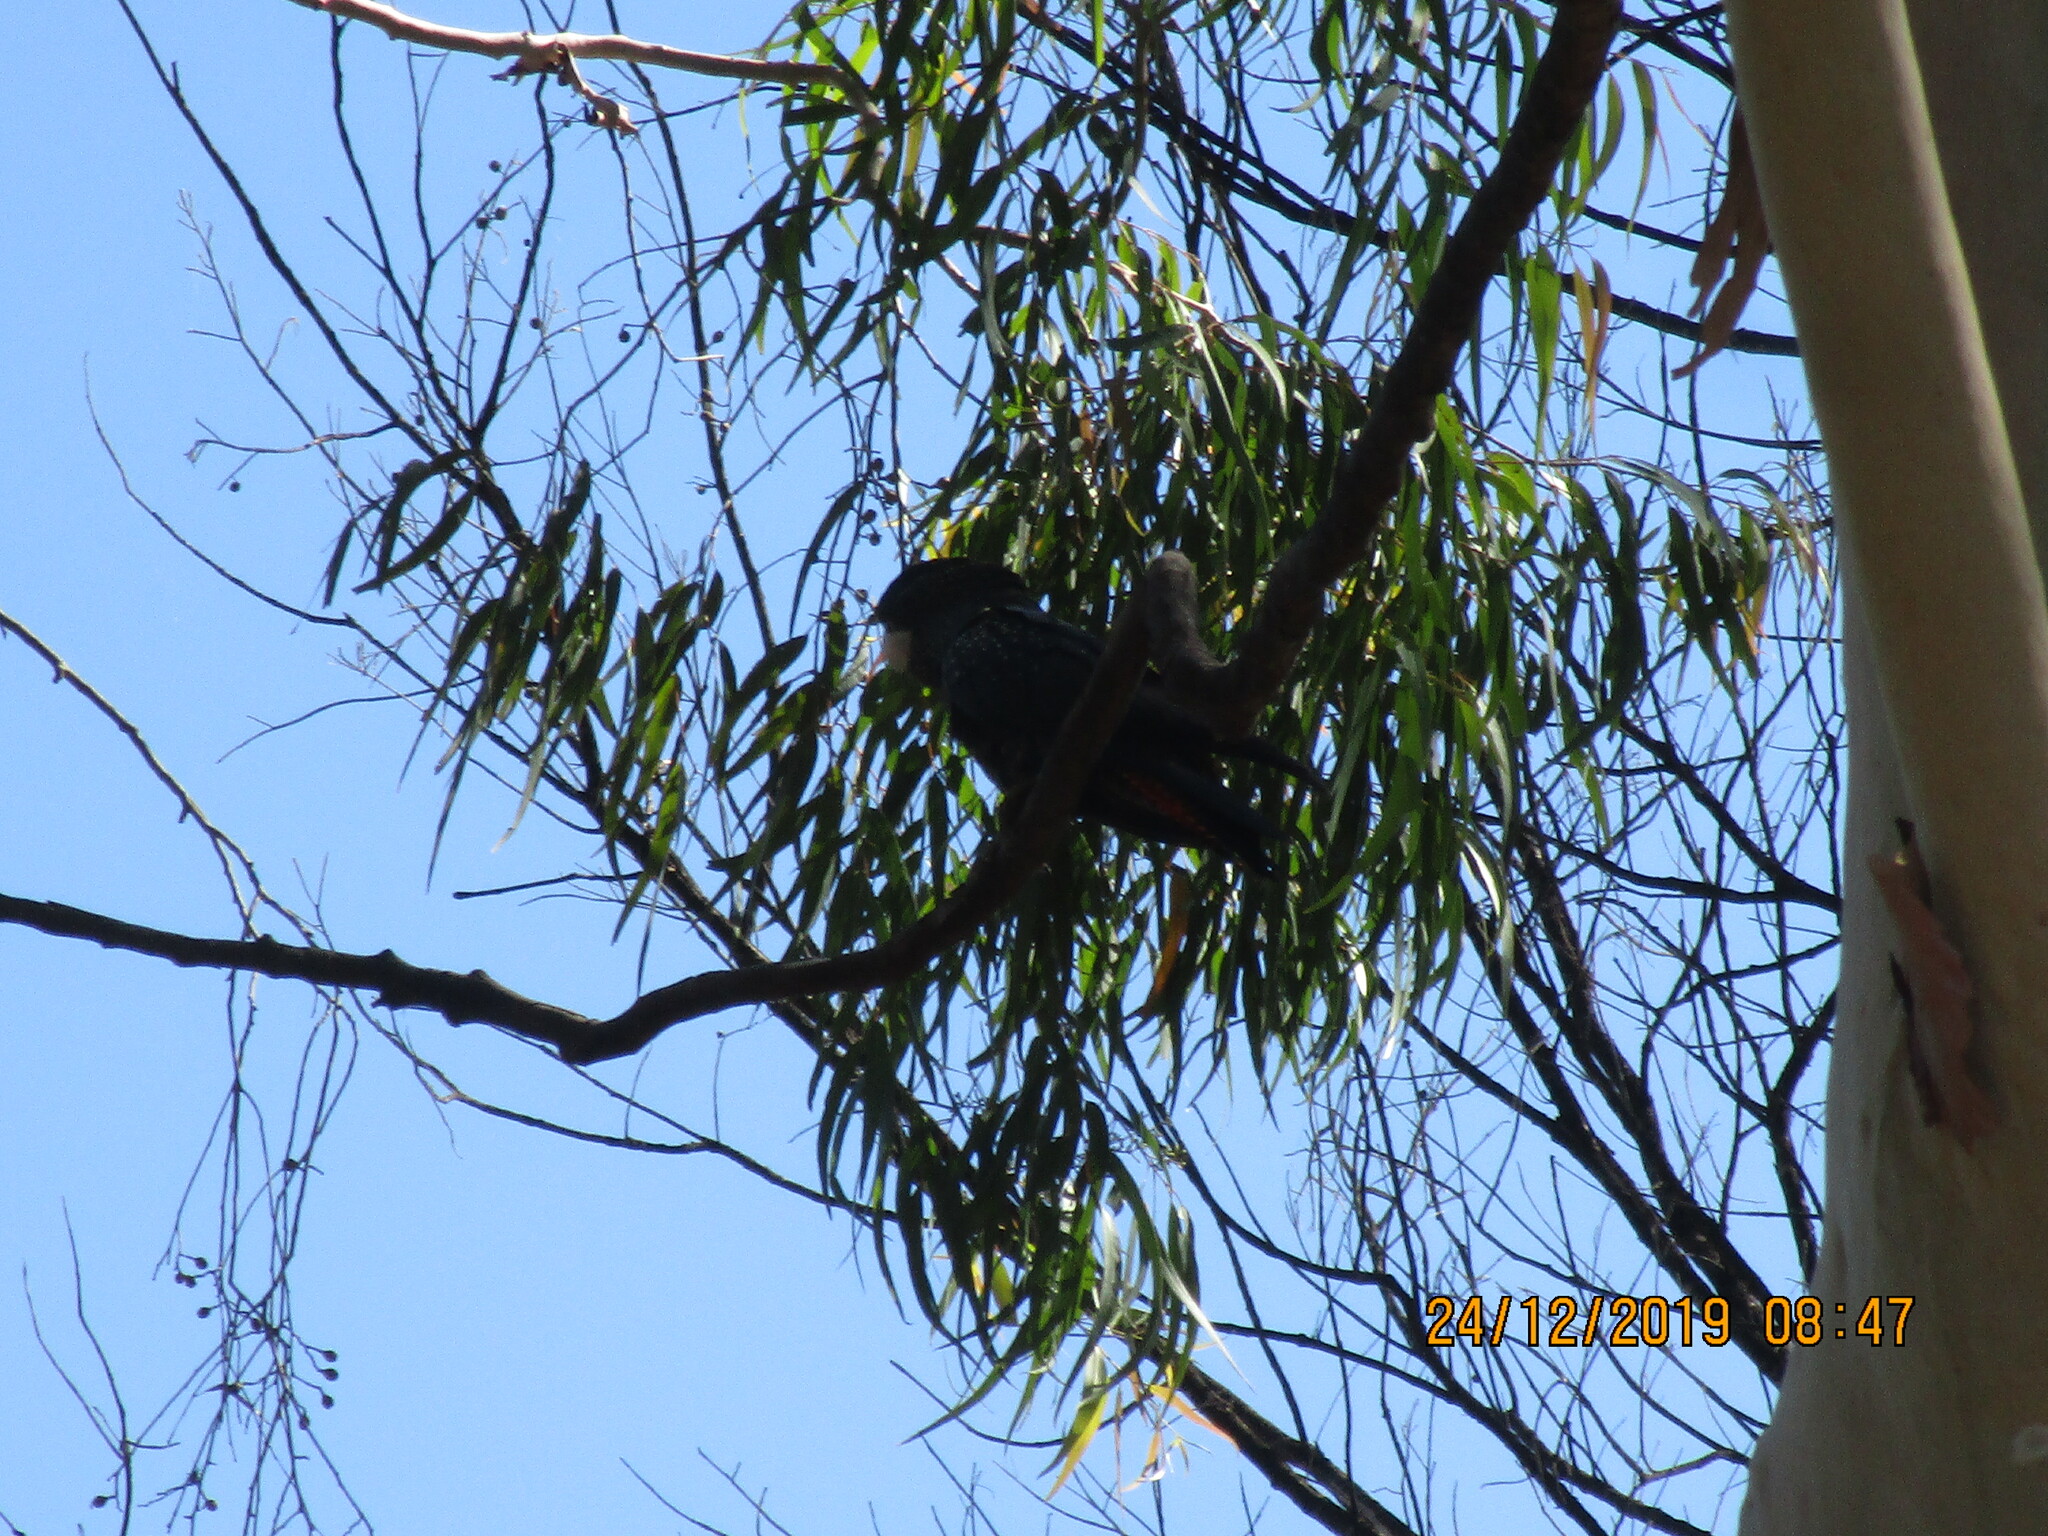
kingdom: Animalia
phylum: Chordata
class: Aves
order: Psittaciformes
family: Psittacidae
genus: Calyptorhynchus
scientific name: Calyptorhynchus banksii
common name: Red-tailed black cockatoo
